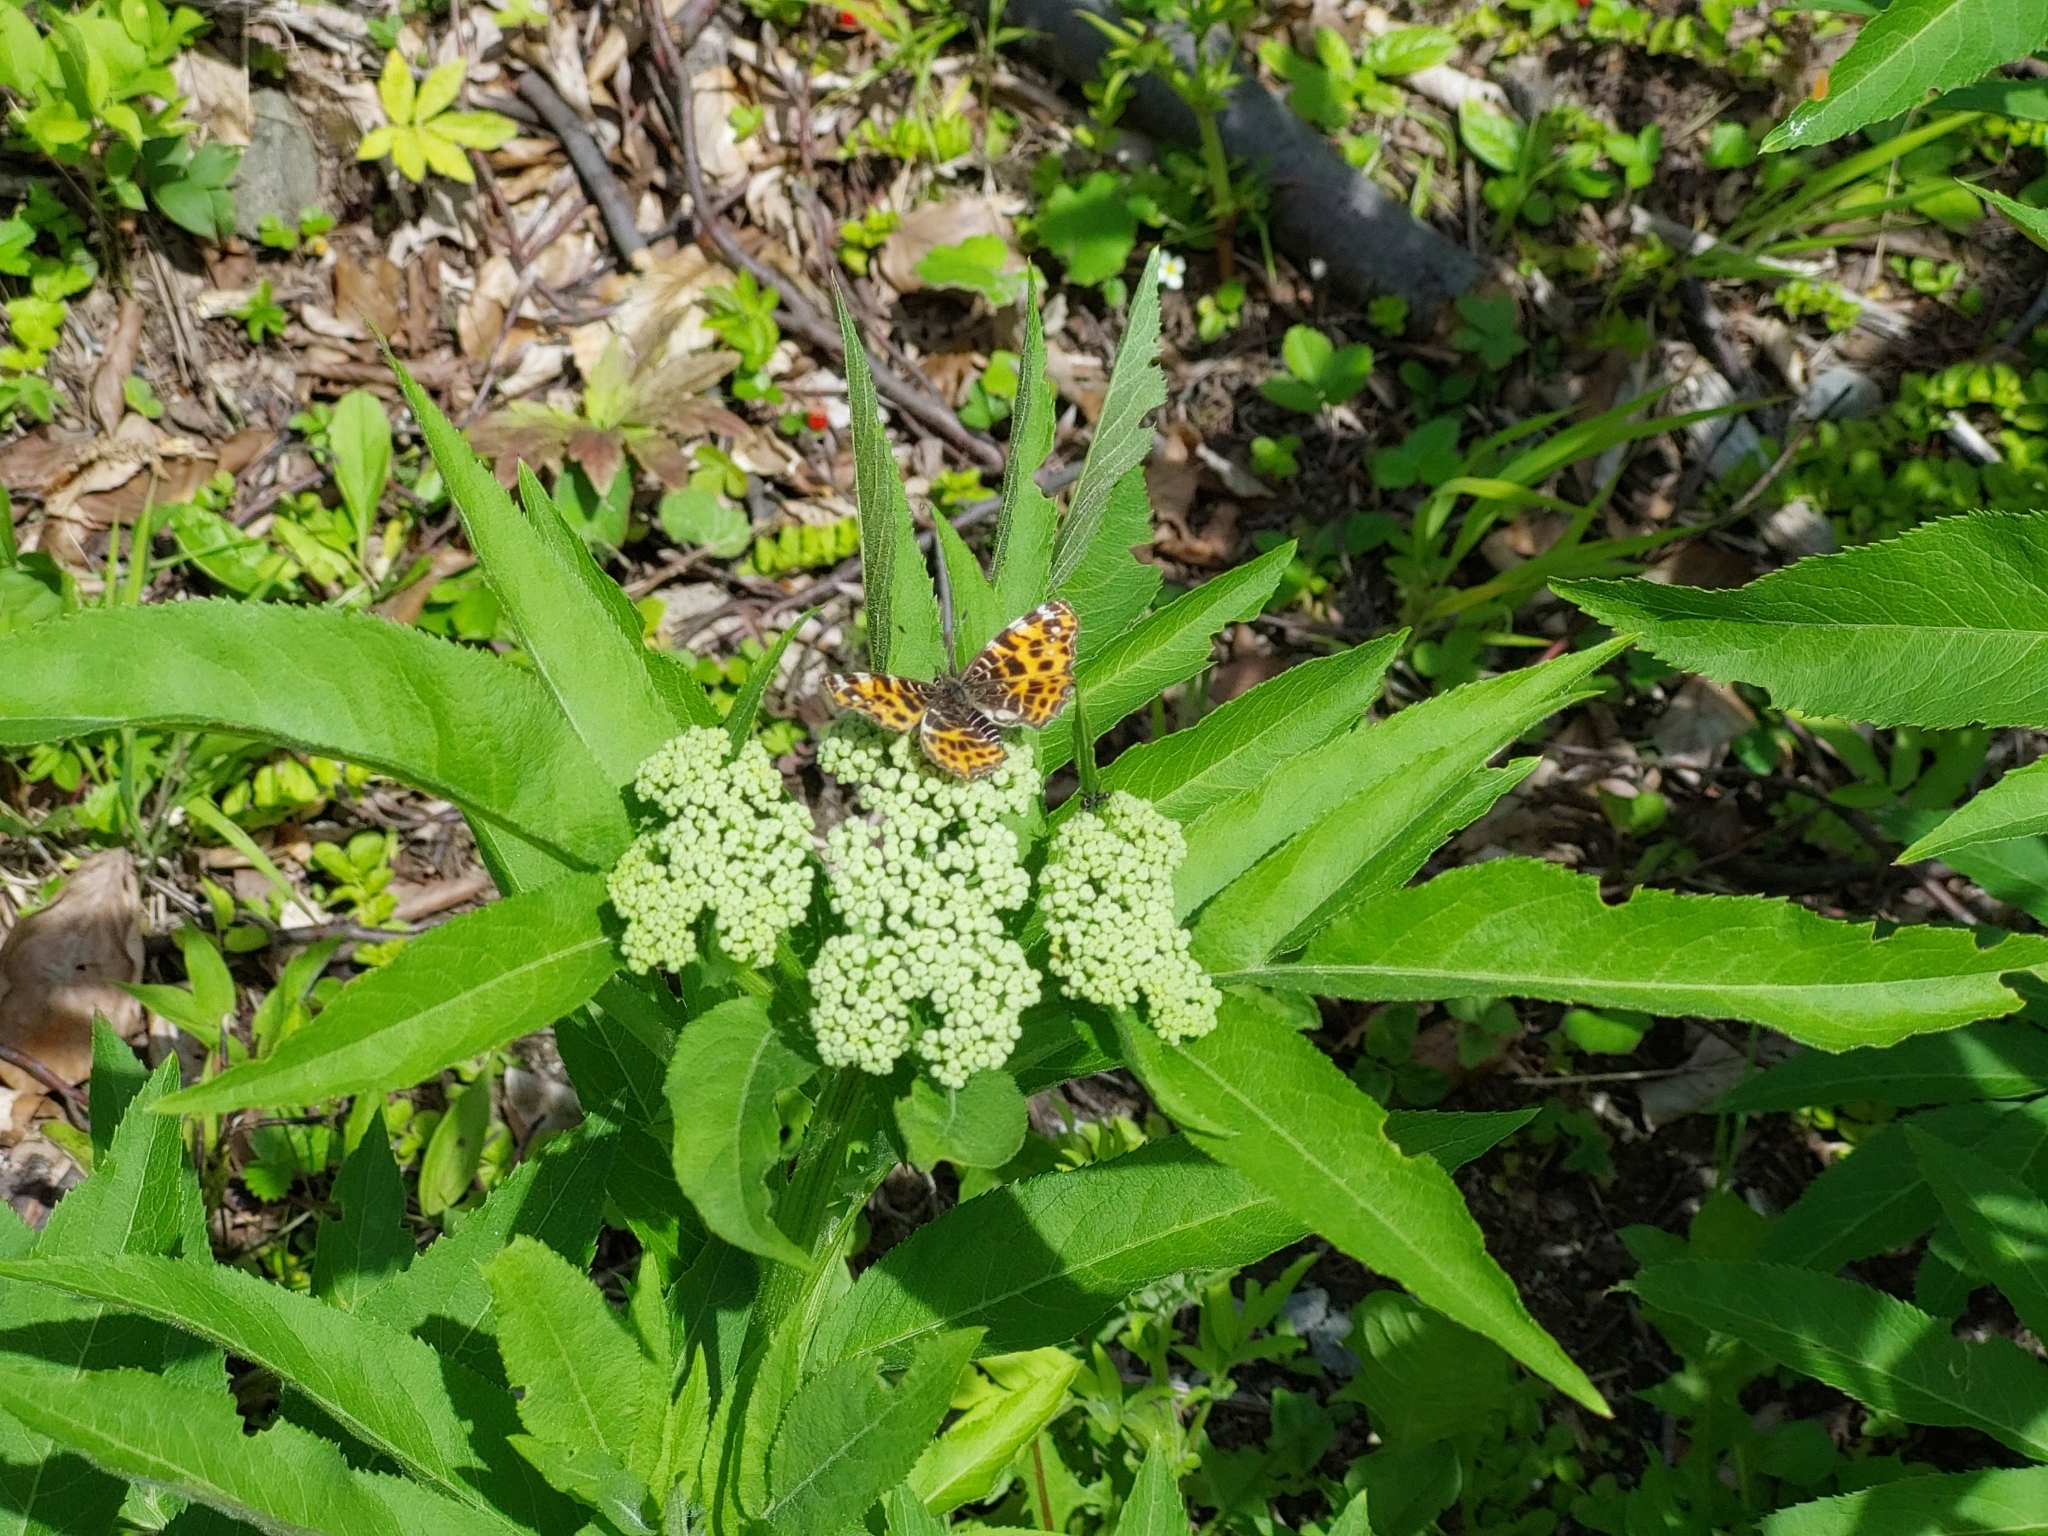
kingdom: Animalia
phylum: Arthropoda
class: Insecta
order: Lepidoptera
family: Nymphalidae
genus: Araschnia
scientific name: Araschnia levana
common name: Map butterfly
